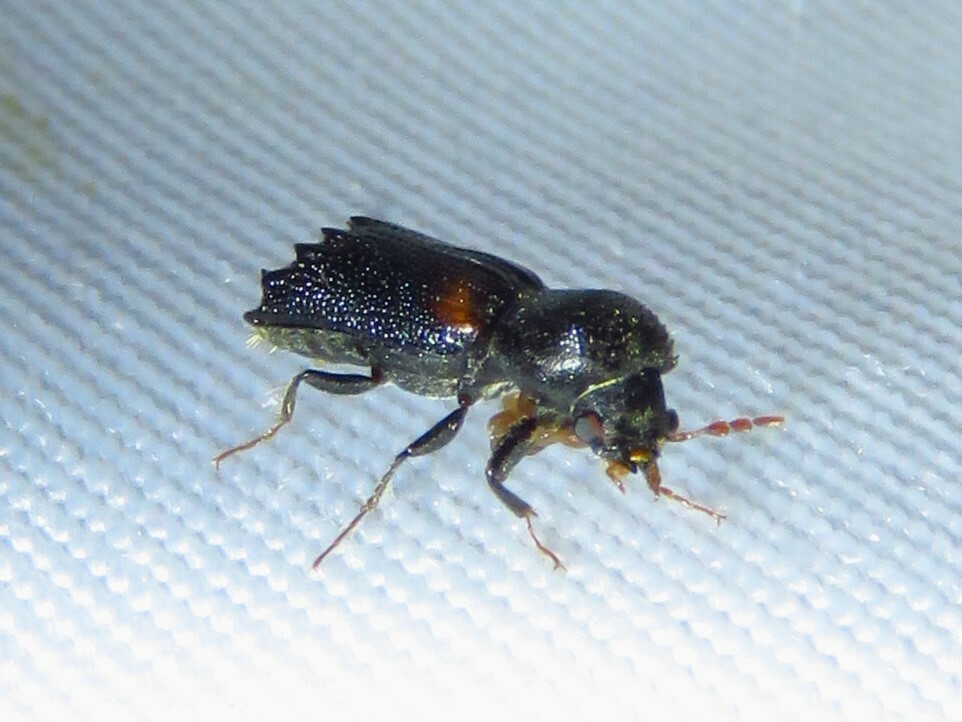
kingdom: Animalia
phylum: Arthropoda
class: Insecta
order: Coleoptera
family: Bostrichidae
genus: Xylobiops
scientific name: Xylobiops basilaris
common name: Red-shouldered bostrichid
